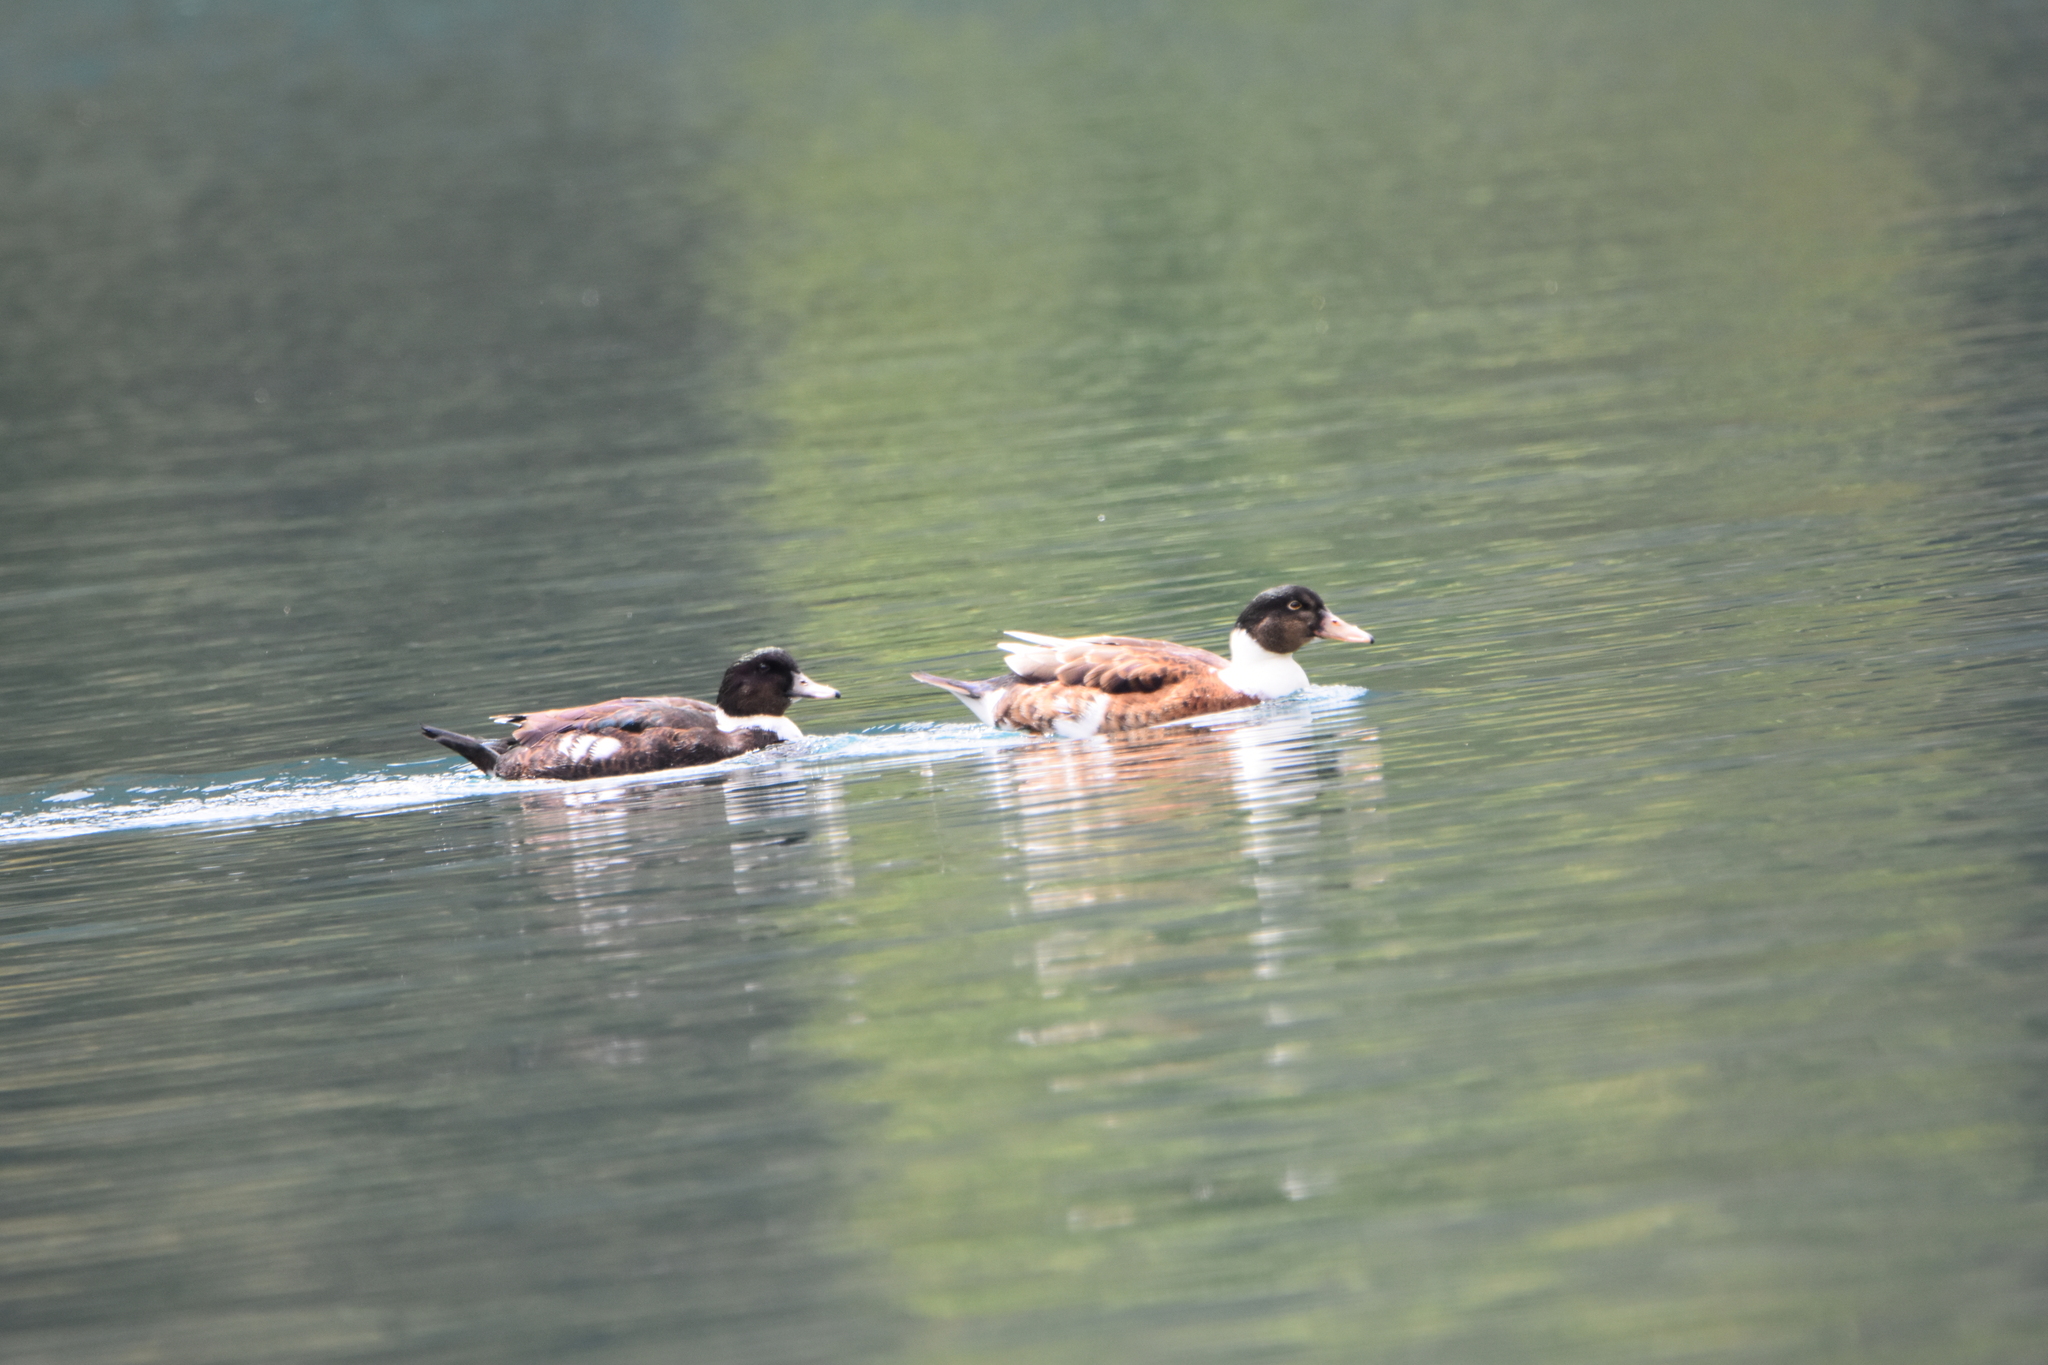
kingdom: Animalia
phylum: Chordata
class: Aves
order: Anseriformes
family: Anatidae
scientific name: Anatidae
